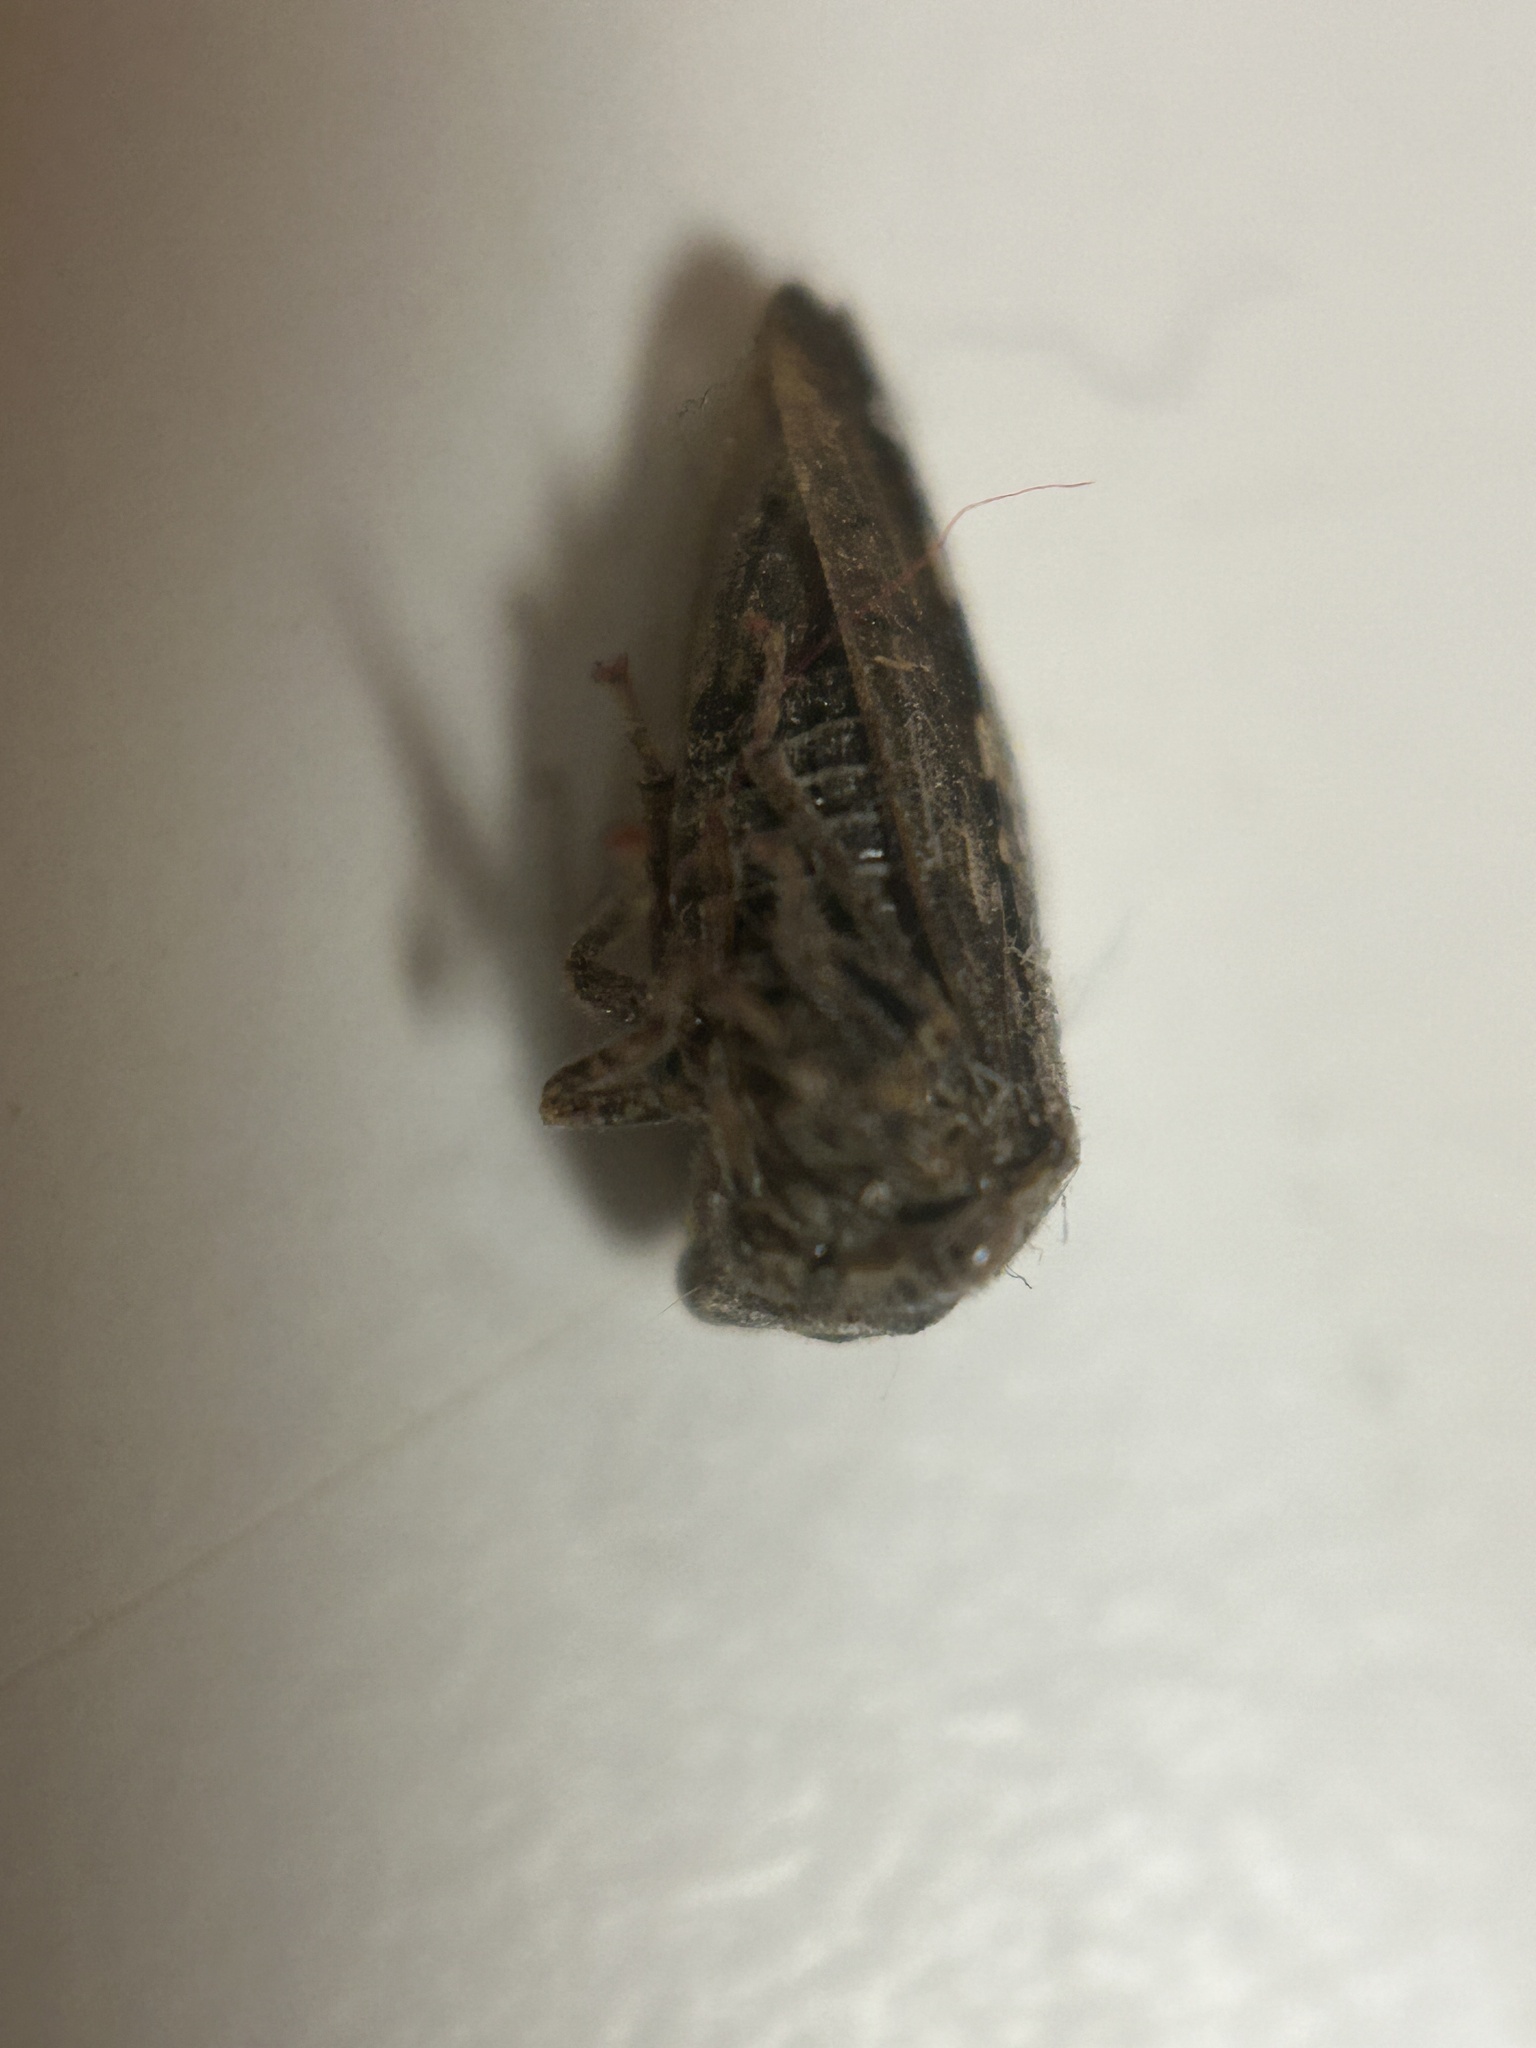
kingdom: Animalia
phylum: Arthropoda
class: Insecta
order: Hemiptera
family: Membracidae
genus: Telamona
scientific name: Telamona westcotti
